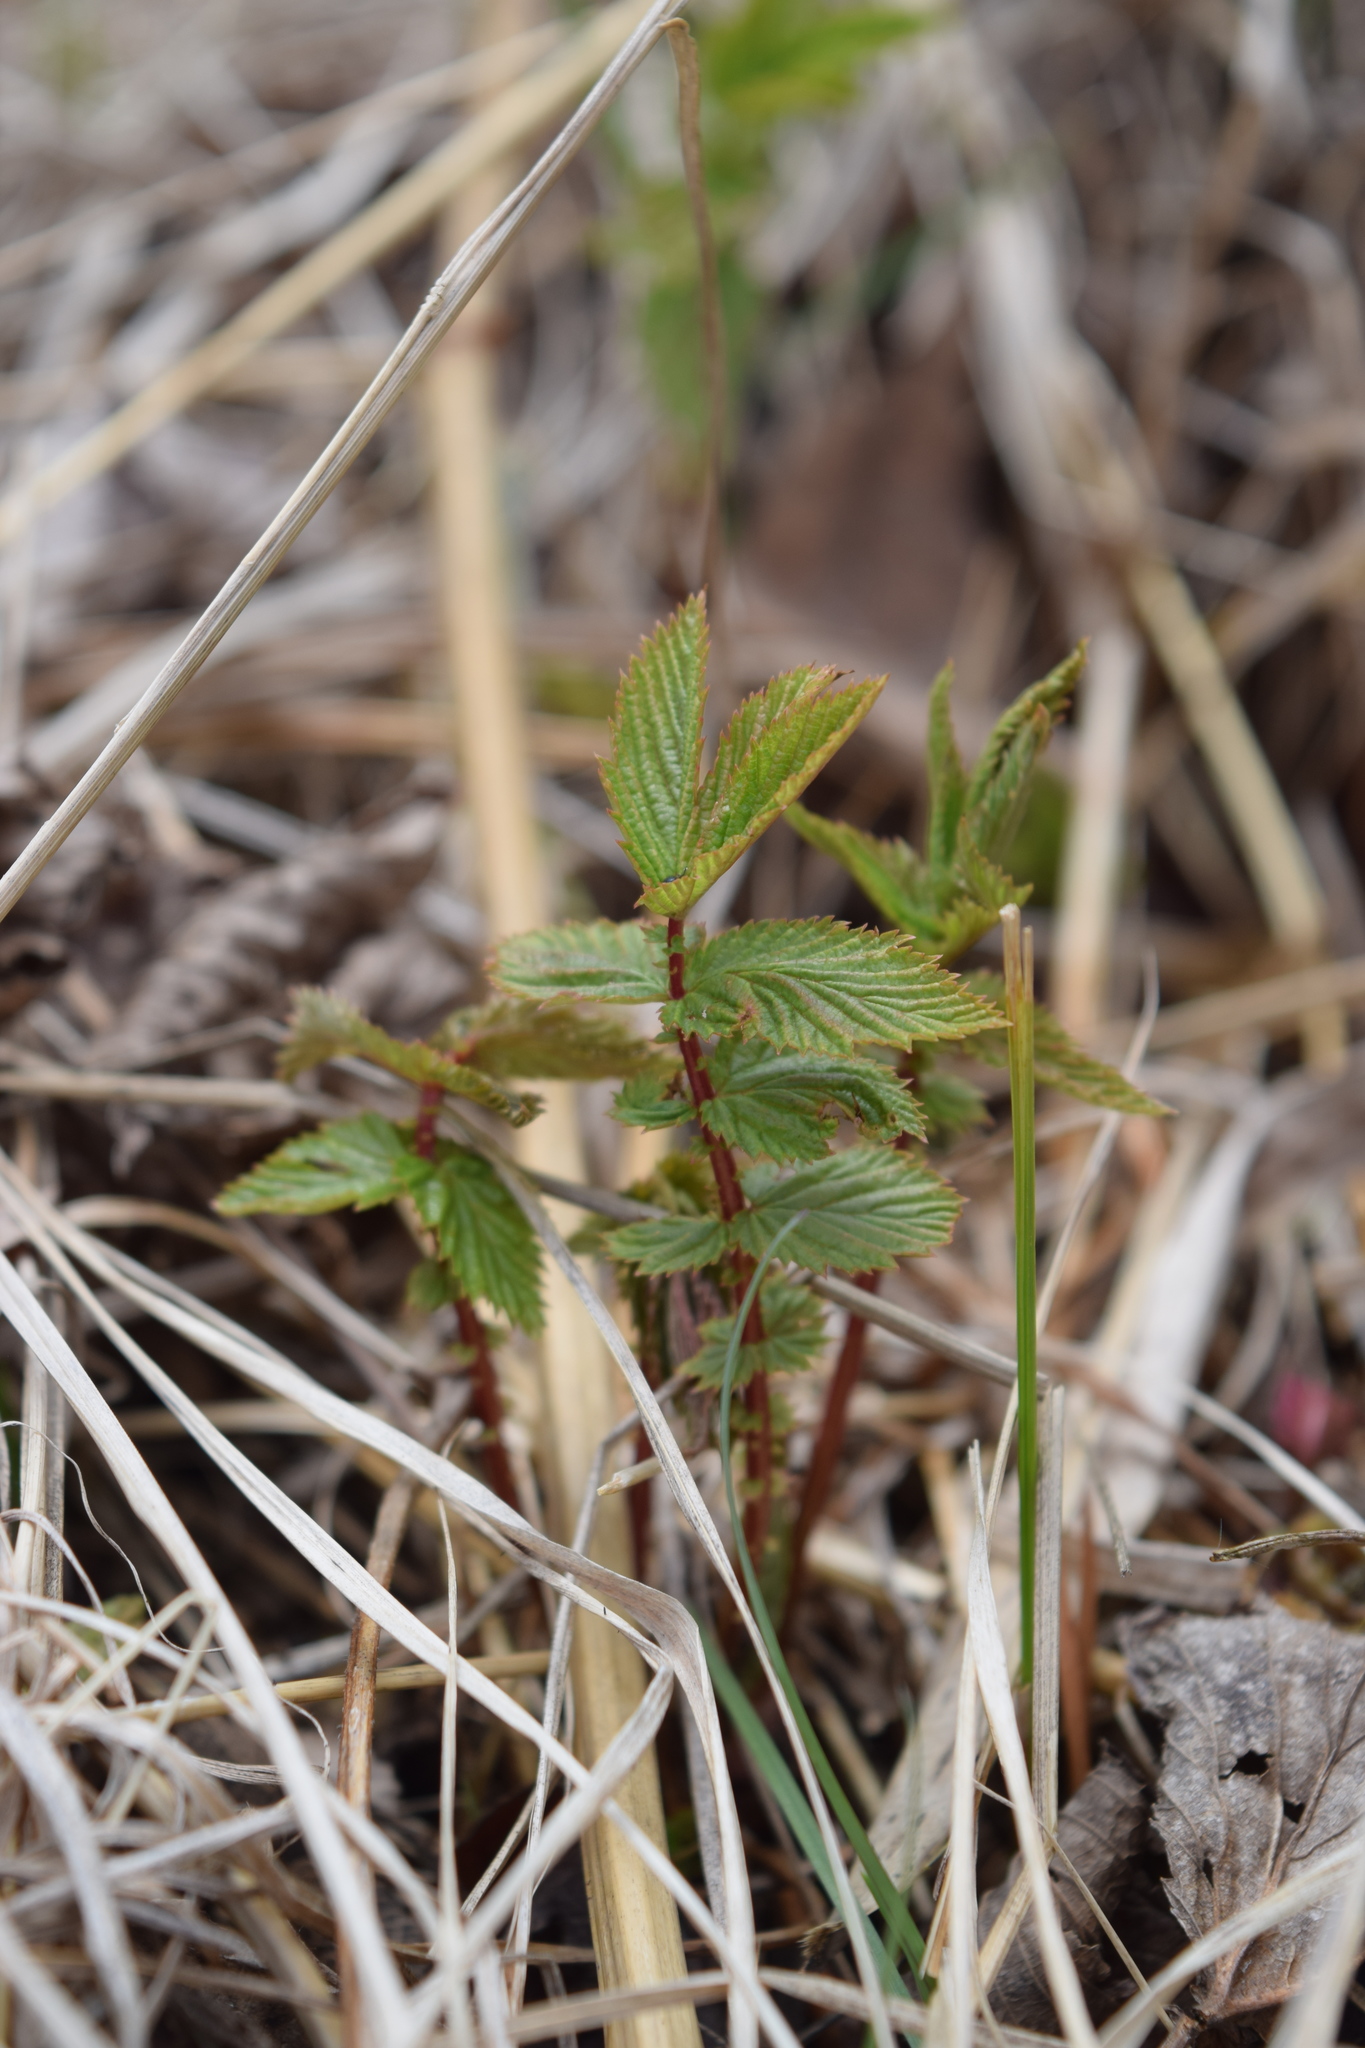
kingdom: Plantae
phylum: Tracheophyta
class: Magnoliopsida
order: Rosales
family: Rosaceae
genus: Filipendula
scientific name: Filipendula ulmaria
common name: Meadowsweet
